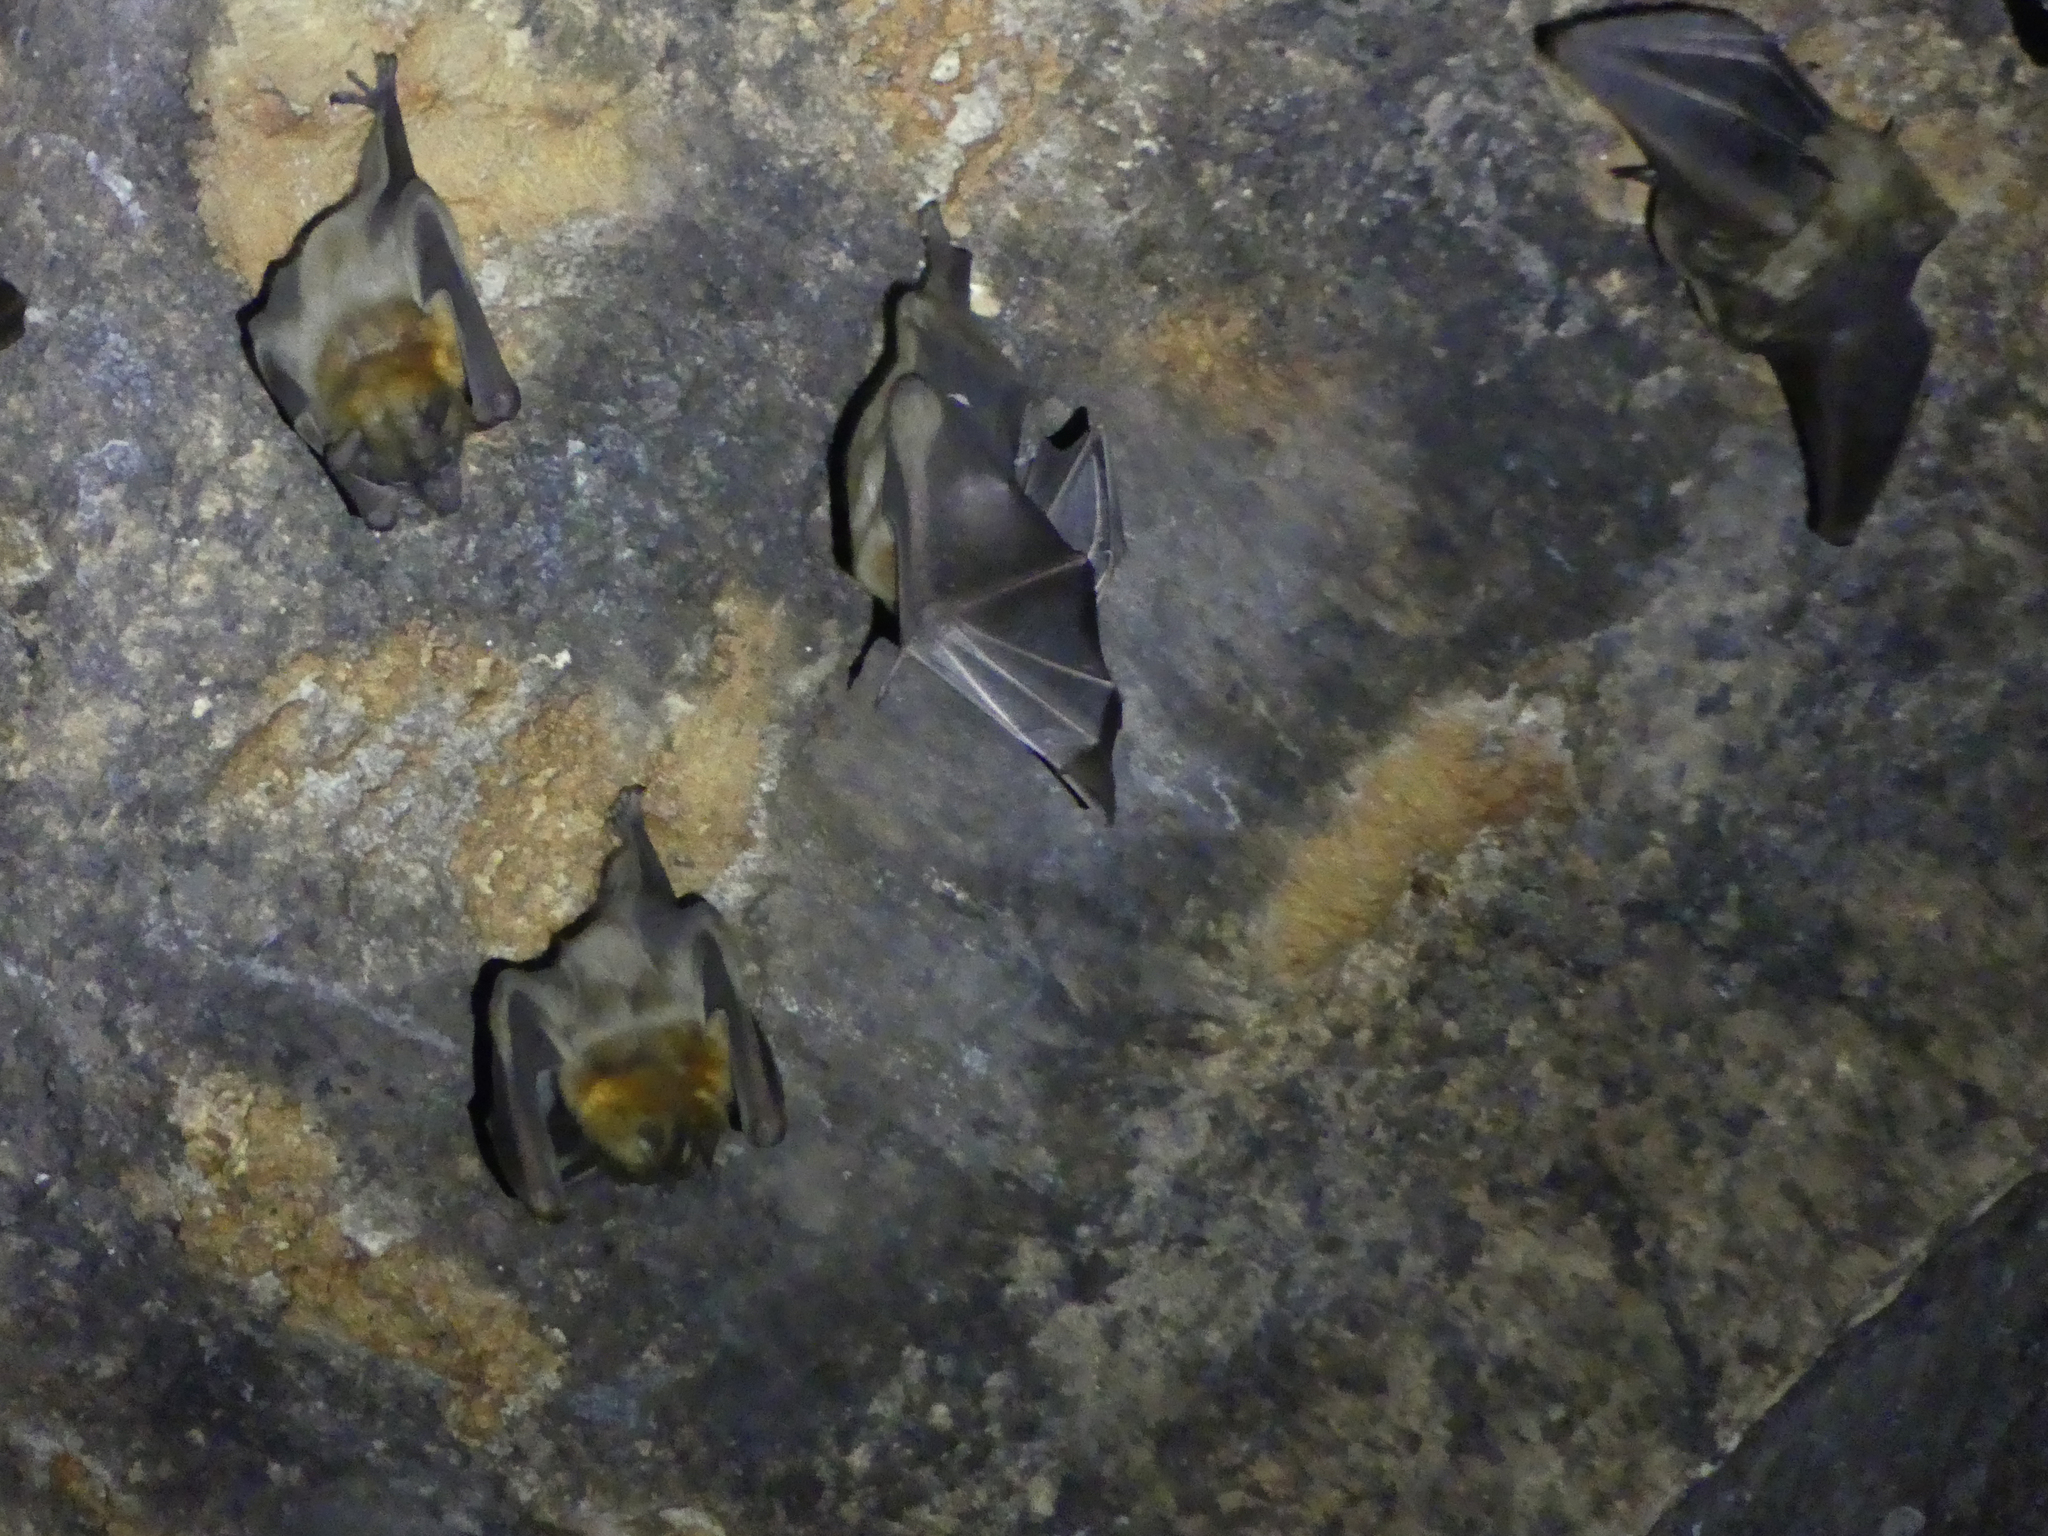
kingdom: Animalia
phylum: Chordata
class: Mammalia
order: Chiroptera
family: Pteropodidae
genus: Eidolon
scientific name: Eidolon dupreanum
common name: Madagascan fruit bat
